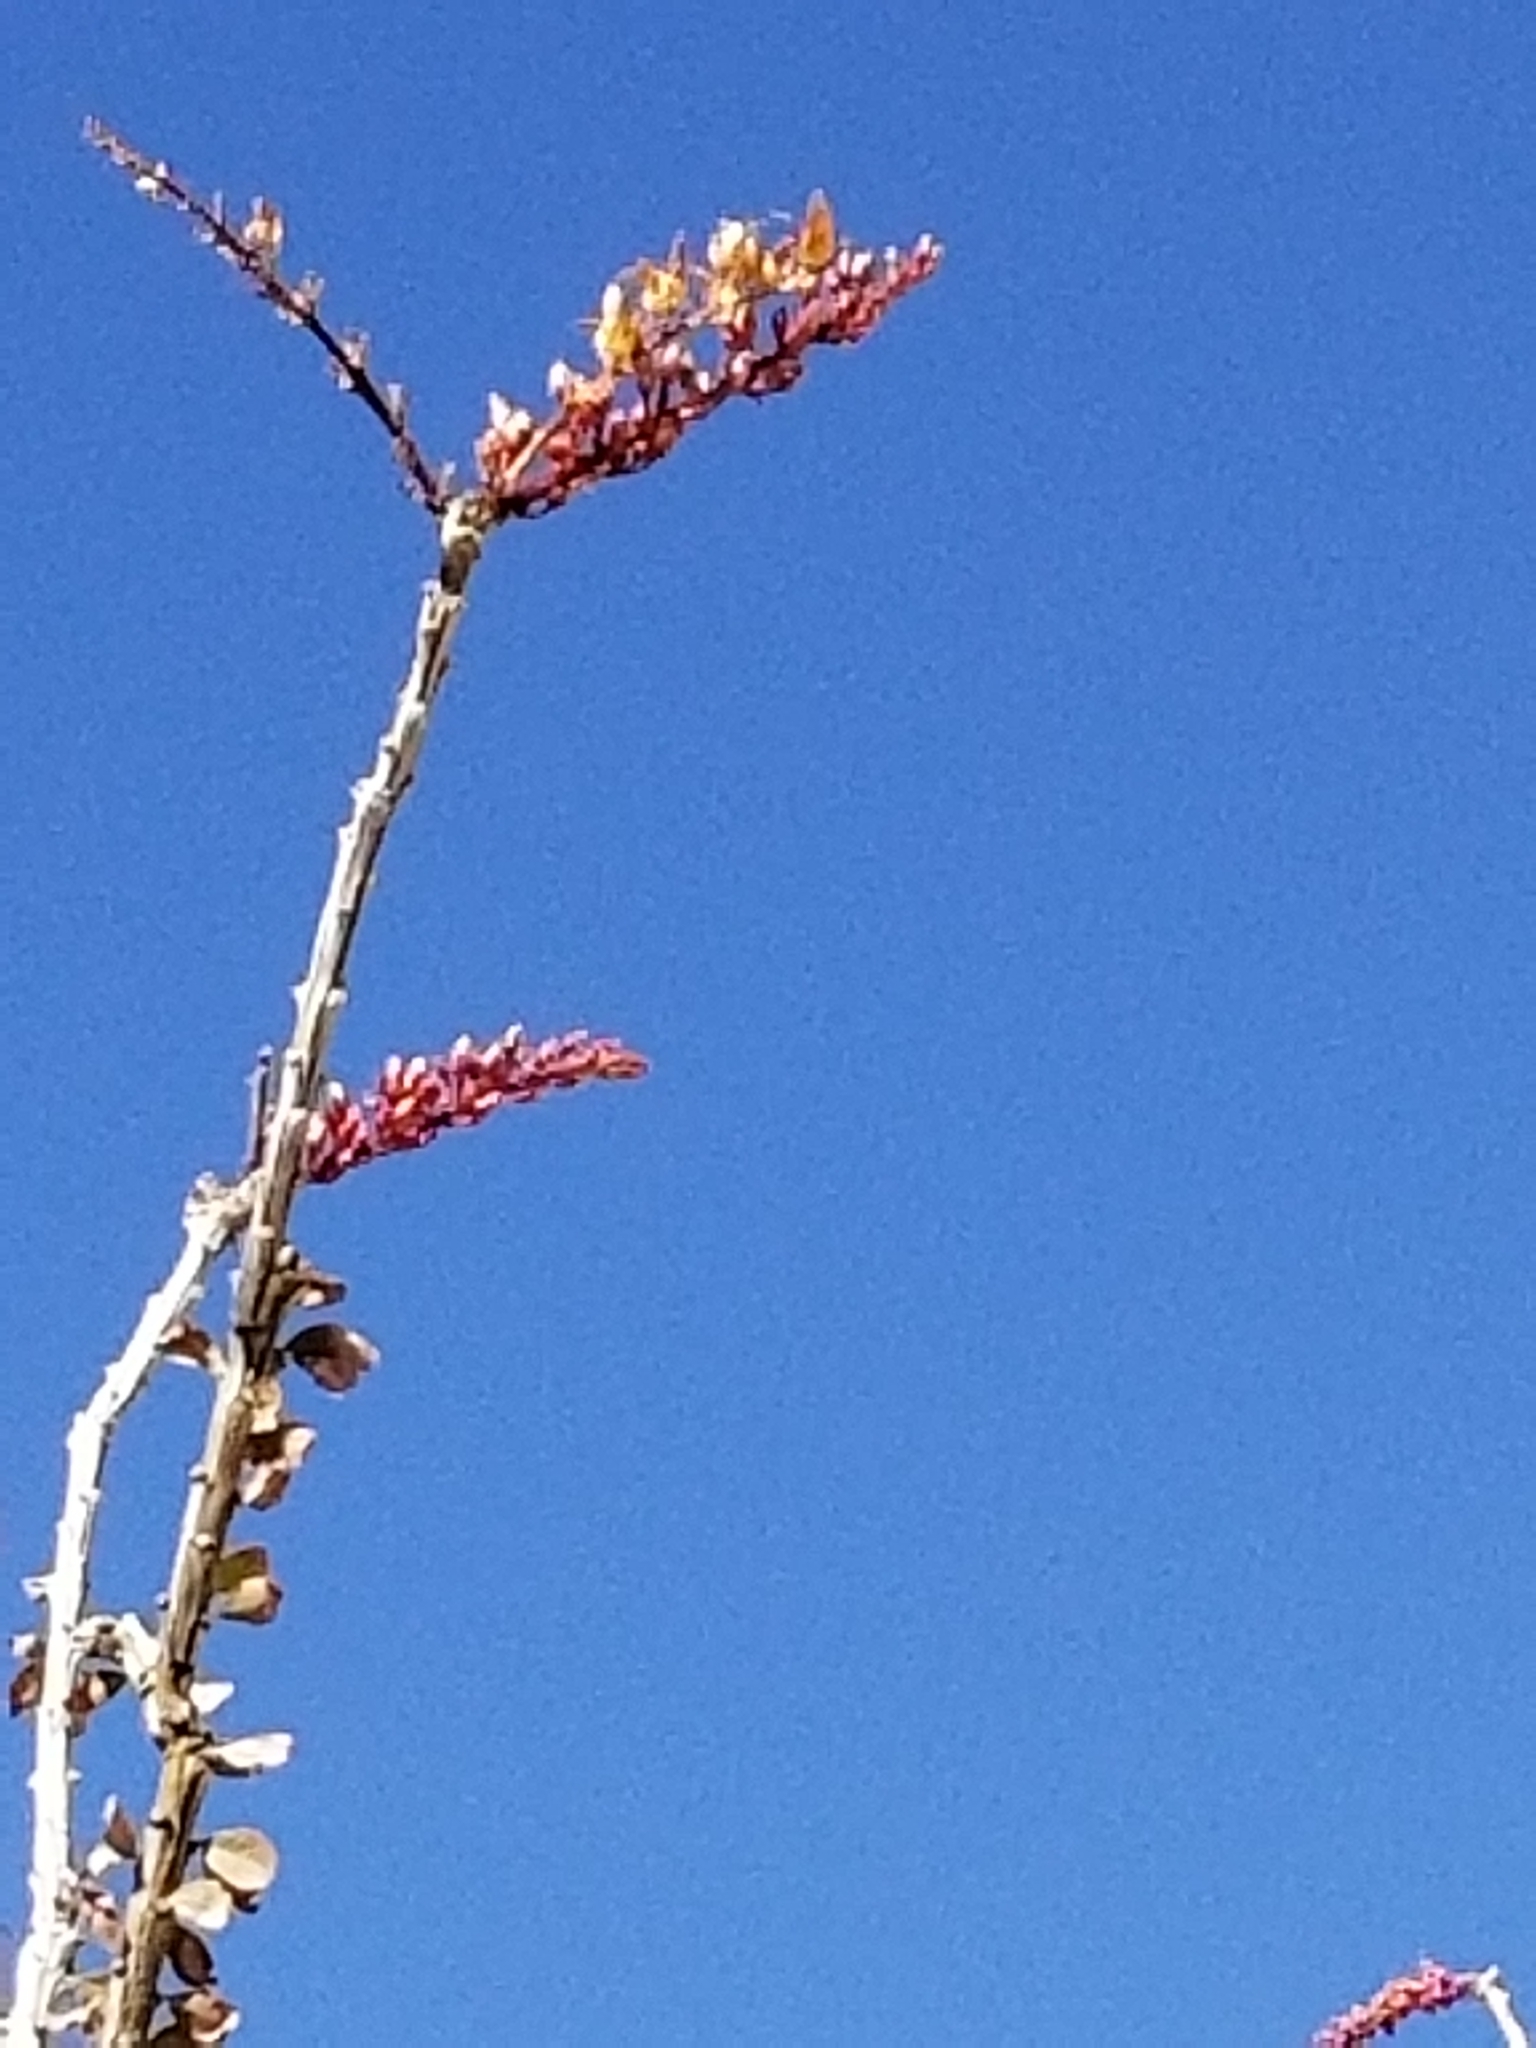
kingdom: Plantae
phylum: Tracheophyta
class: Magnoliopsida
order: Ericales
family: Fouquieriaceae
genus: Fouquieria
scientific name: Fouquieria splendens
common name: Vine-cactus
